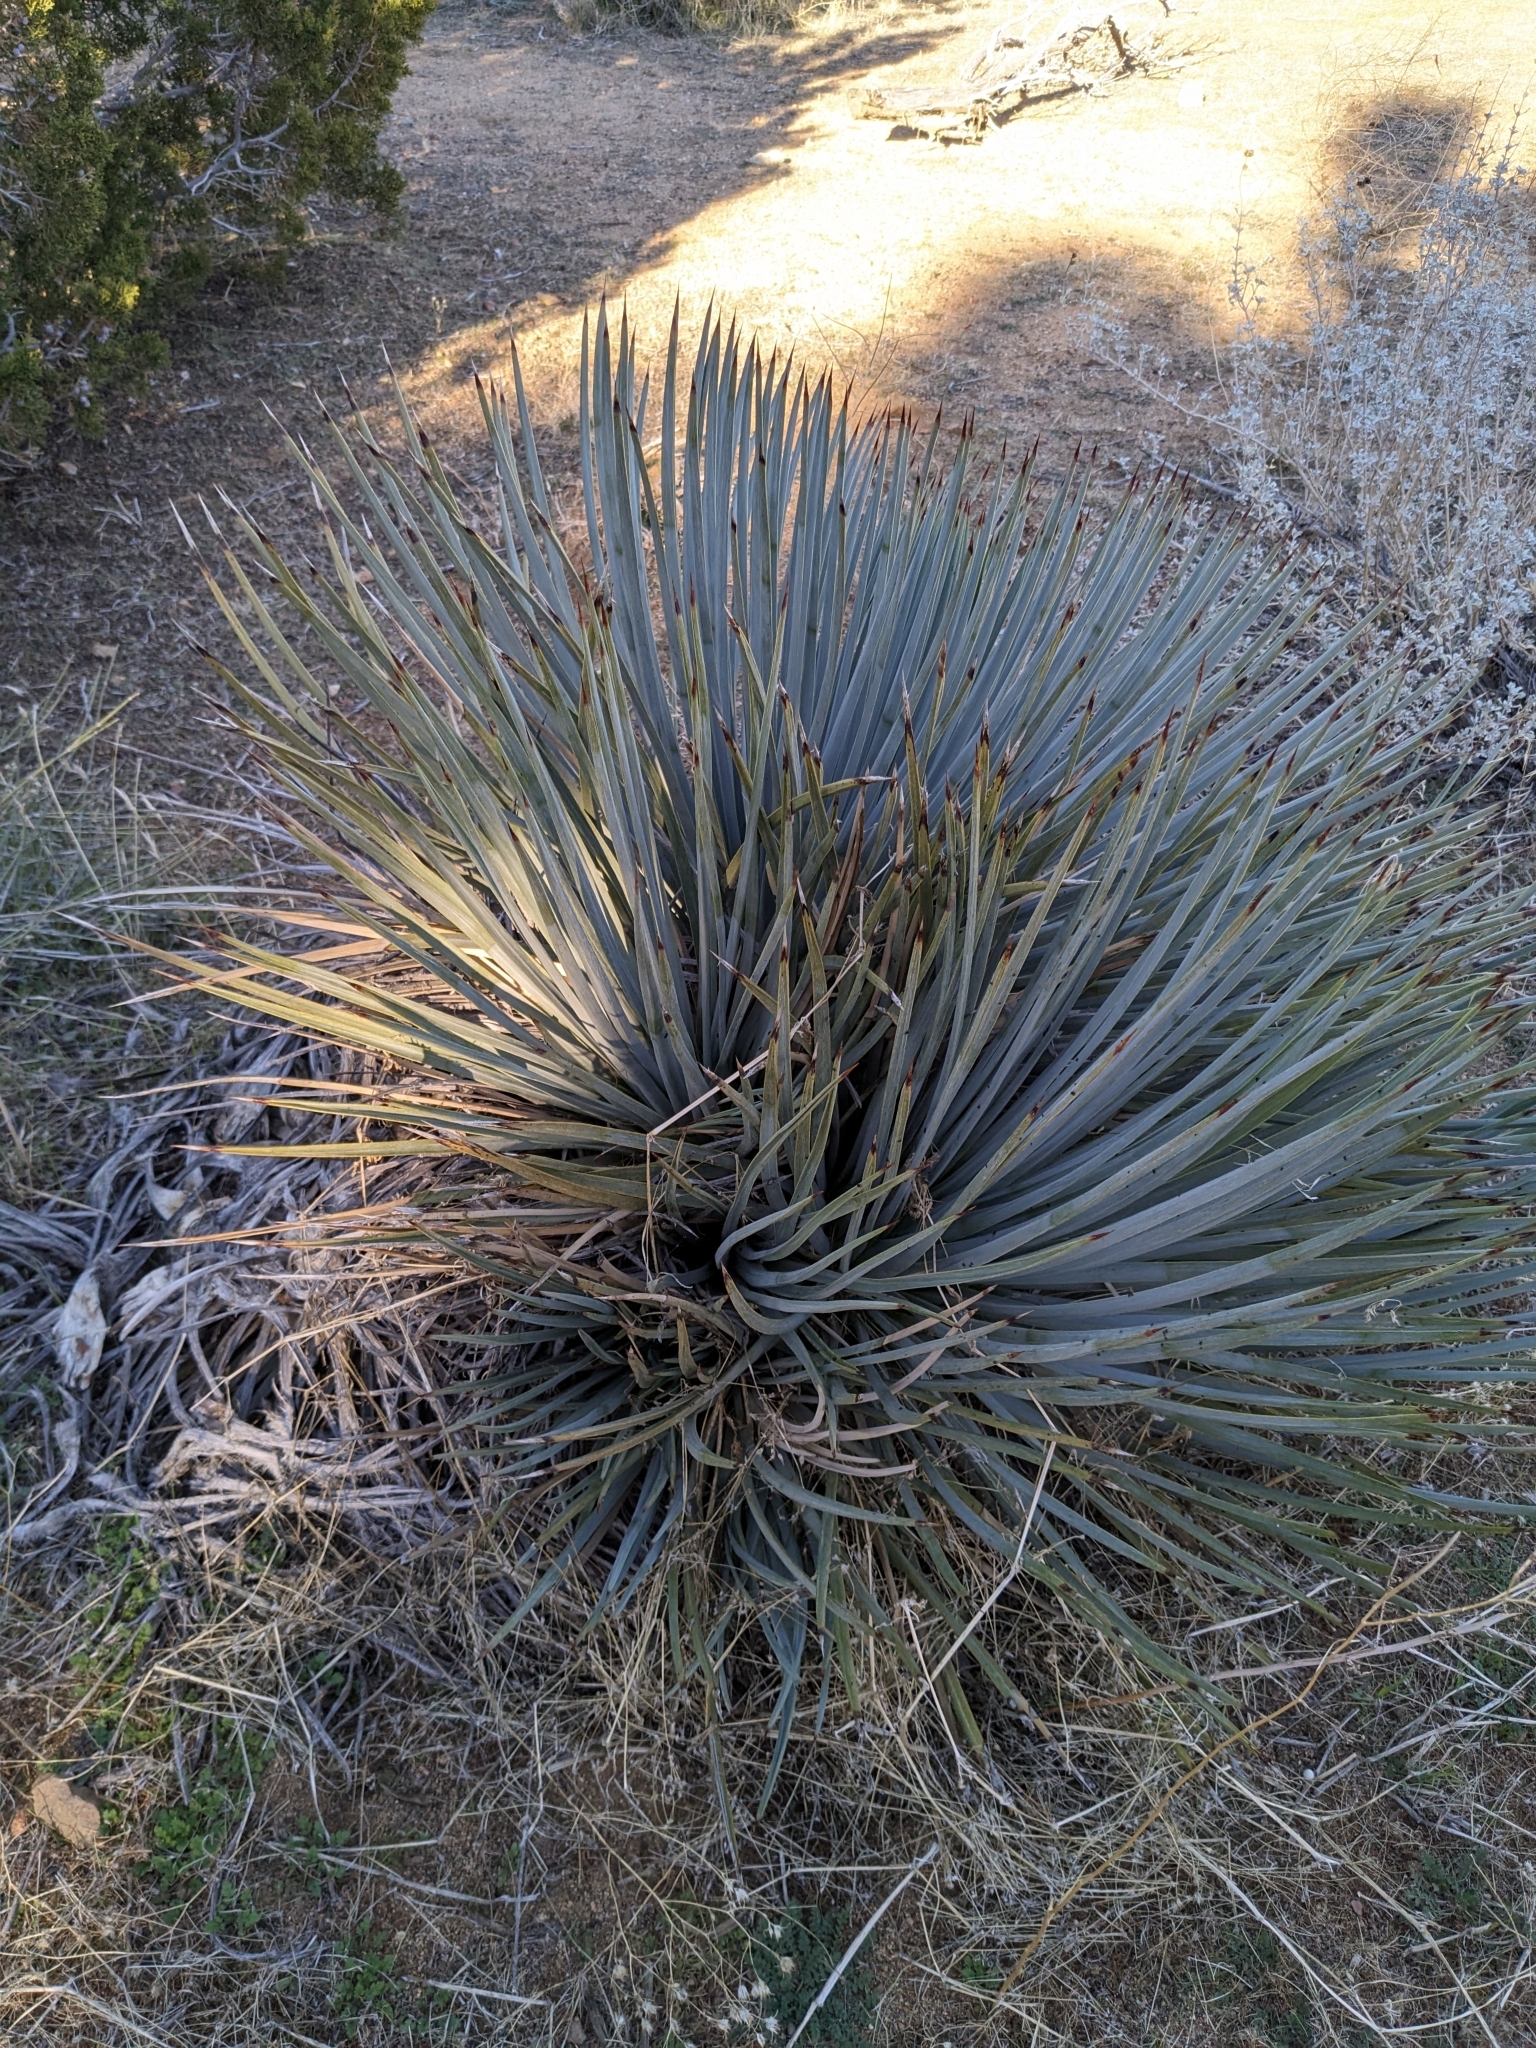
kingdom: Plantae
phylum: Tracheophyta
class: Liliopsida
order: Asparagales
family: Asparagaceae
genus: Hesperoyucca
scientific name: Hesperoyucca whipplei
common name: Our lord's-candle
